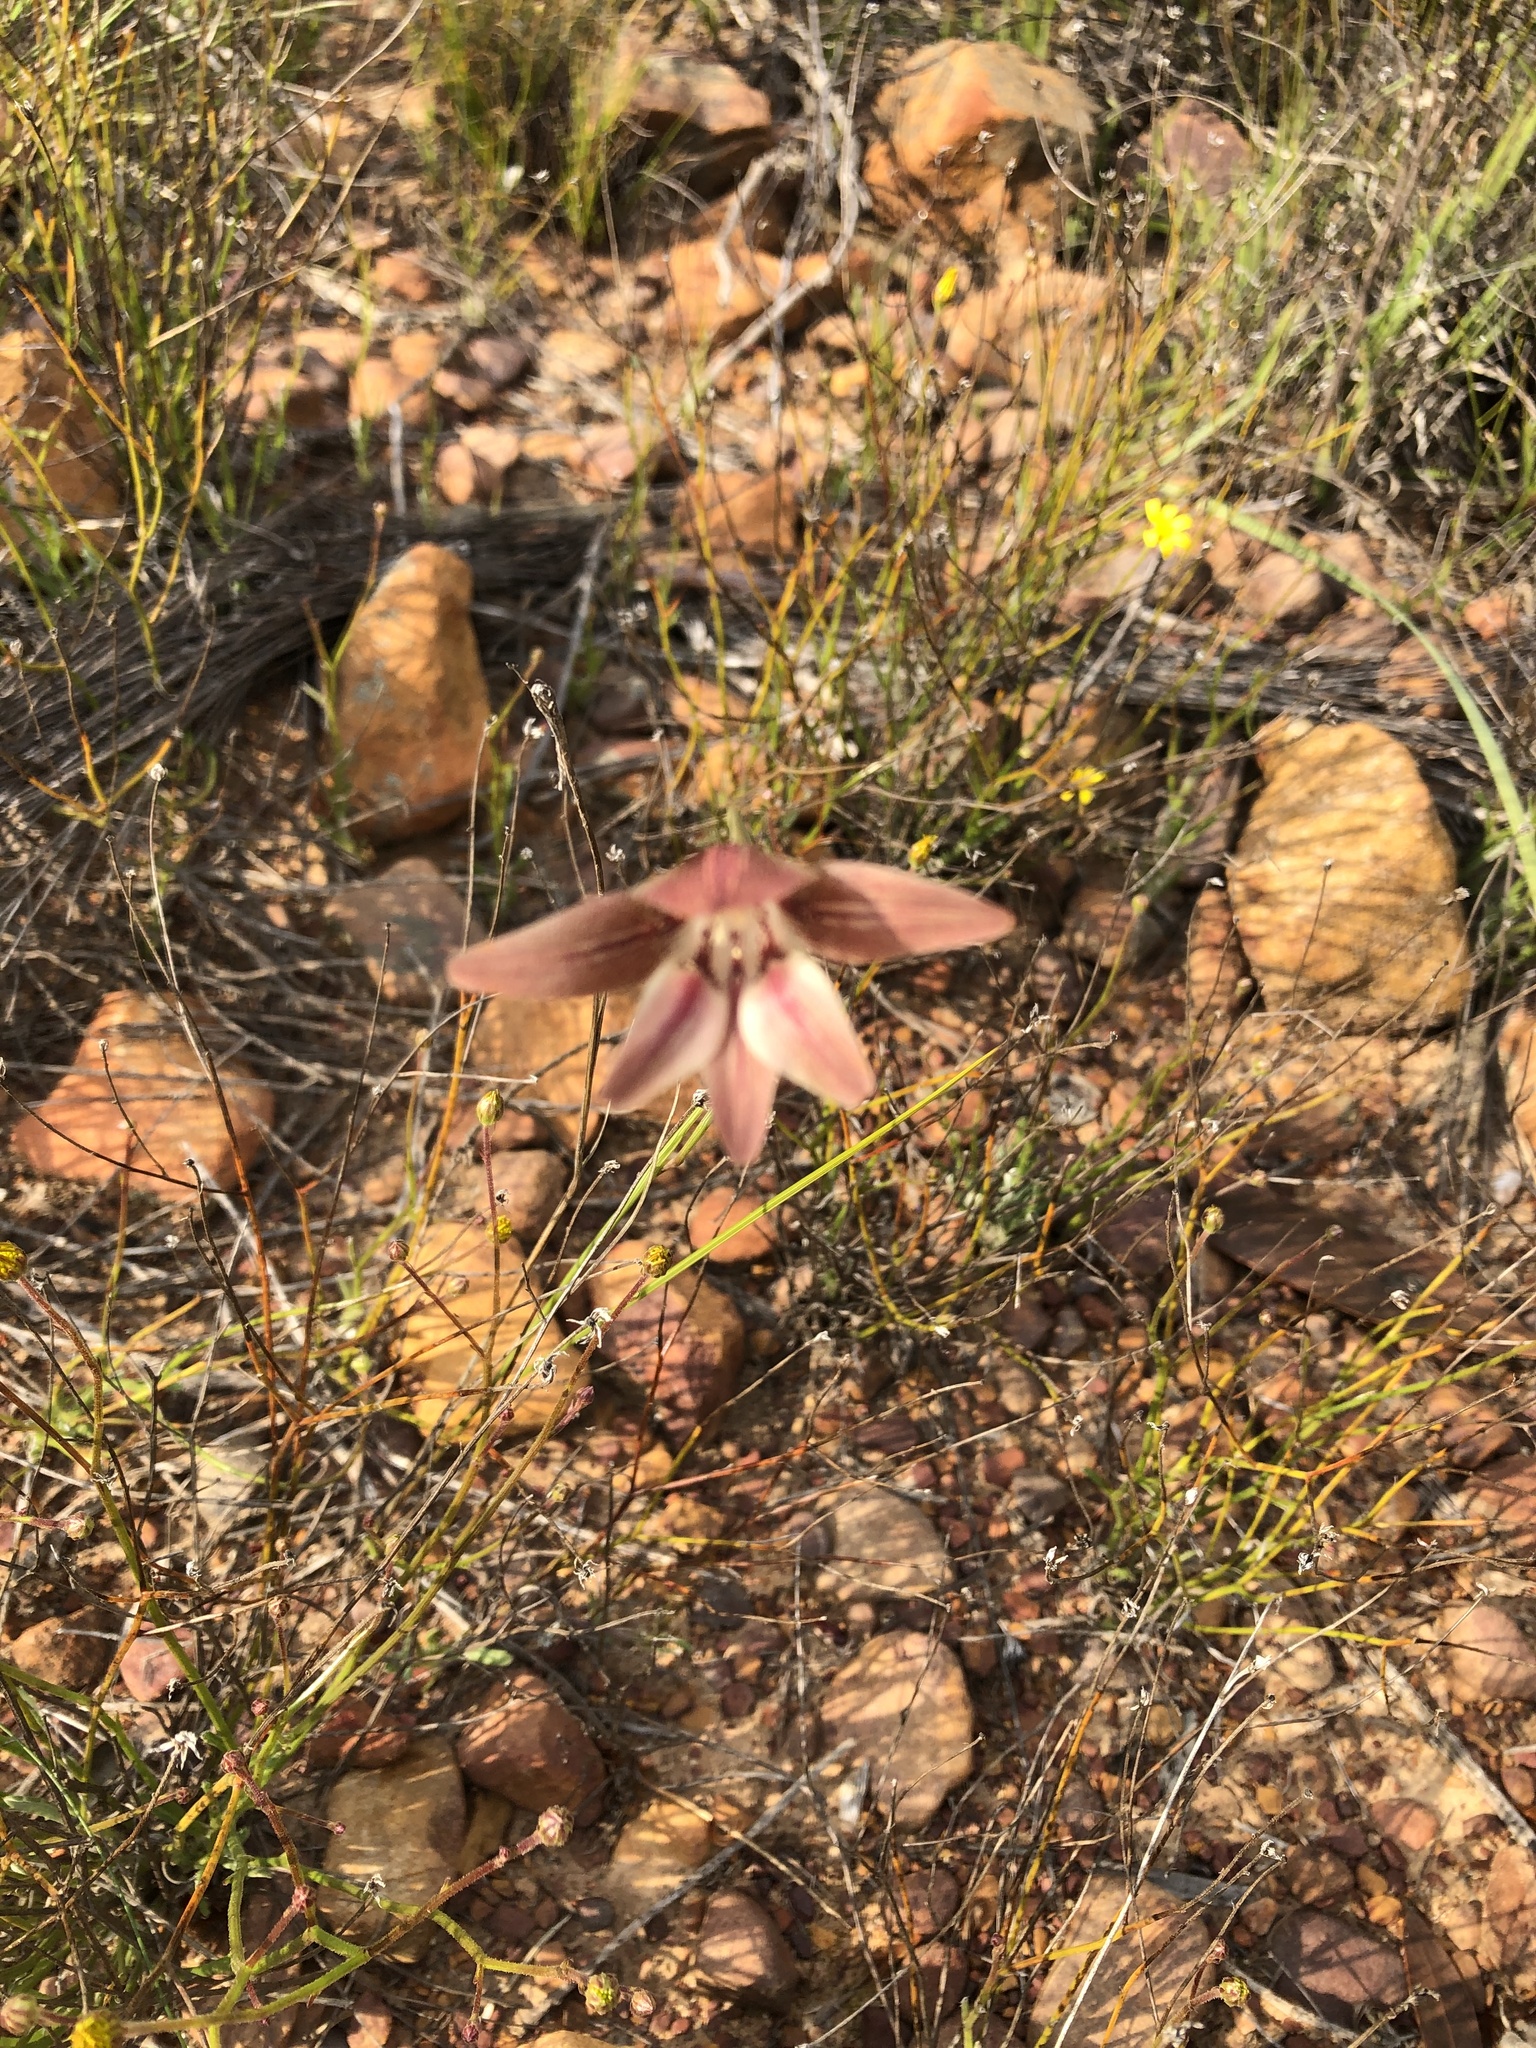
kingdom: Plantae
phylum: Tracheophyta
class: Liliopsida
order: Asparagales
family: Iridaceae
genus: Gladiolus
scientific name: Gladiolus hyalinus
